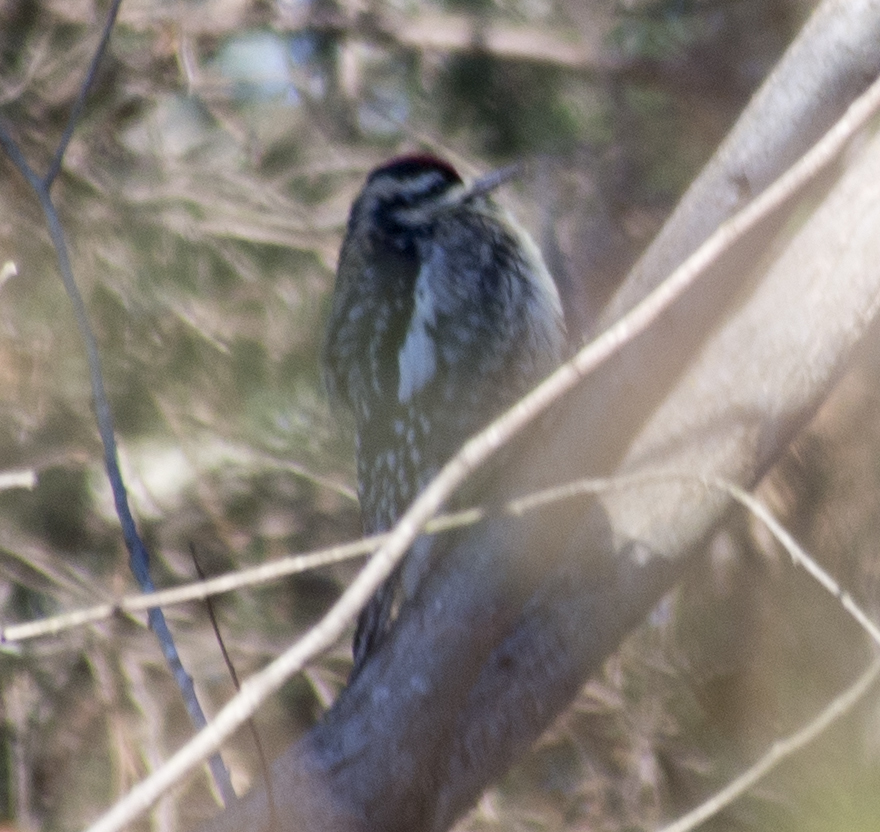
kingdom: Animalia
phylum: Chordata
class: Aves
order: Piciformes
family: Picidae
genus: Sphyrapicus
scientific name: Sphyrapicus varius
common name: Yellow-bellied sapsucker
